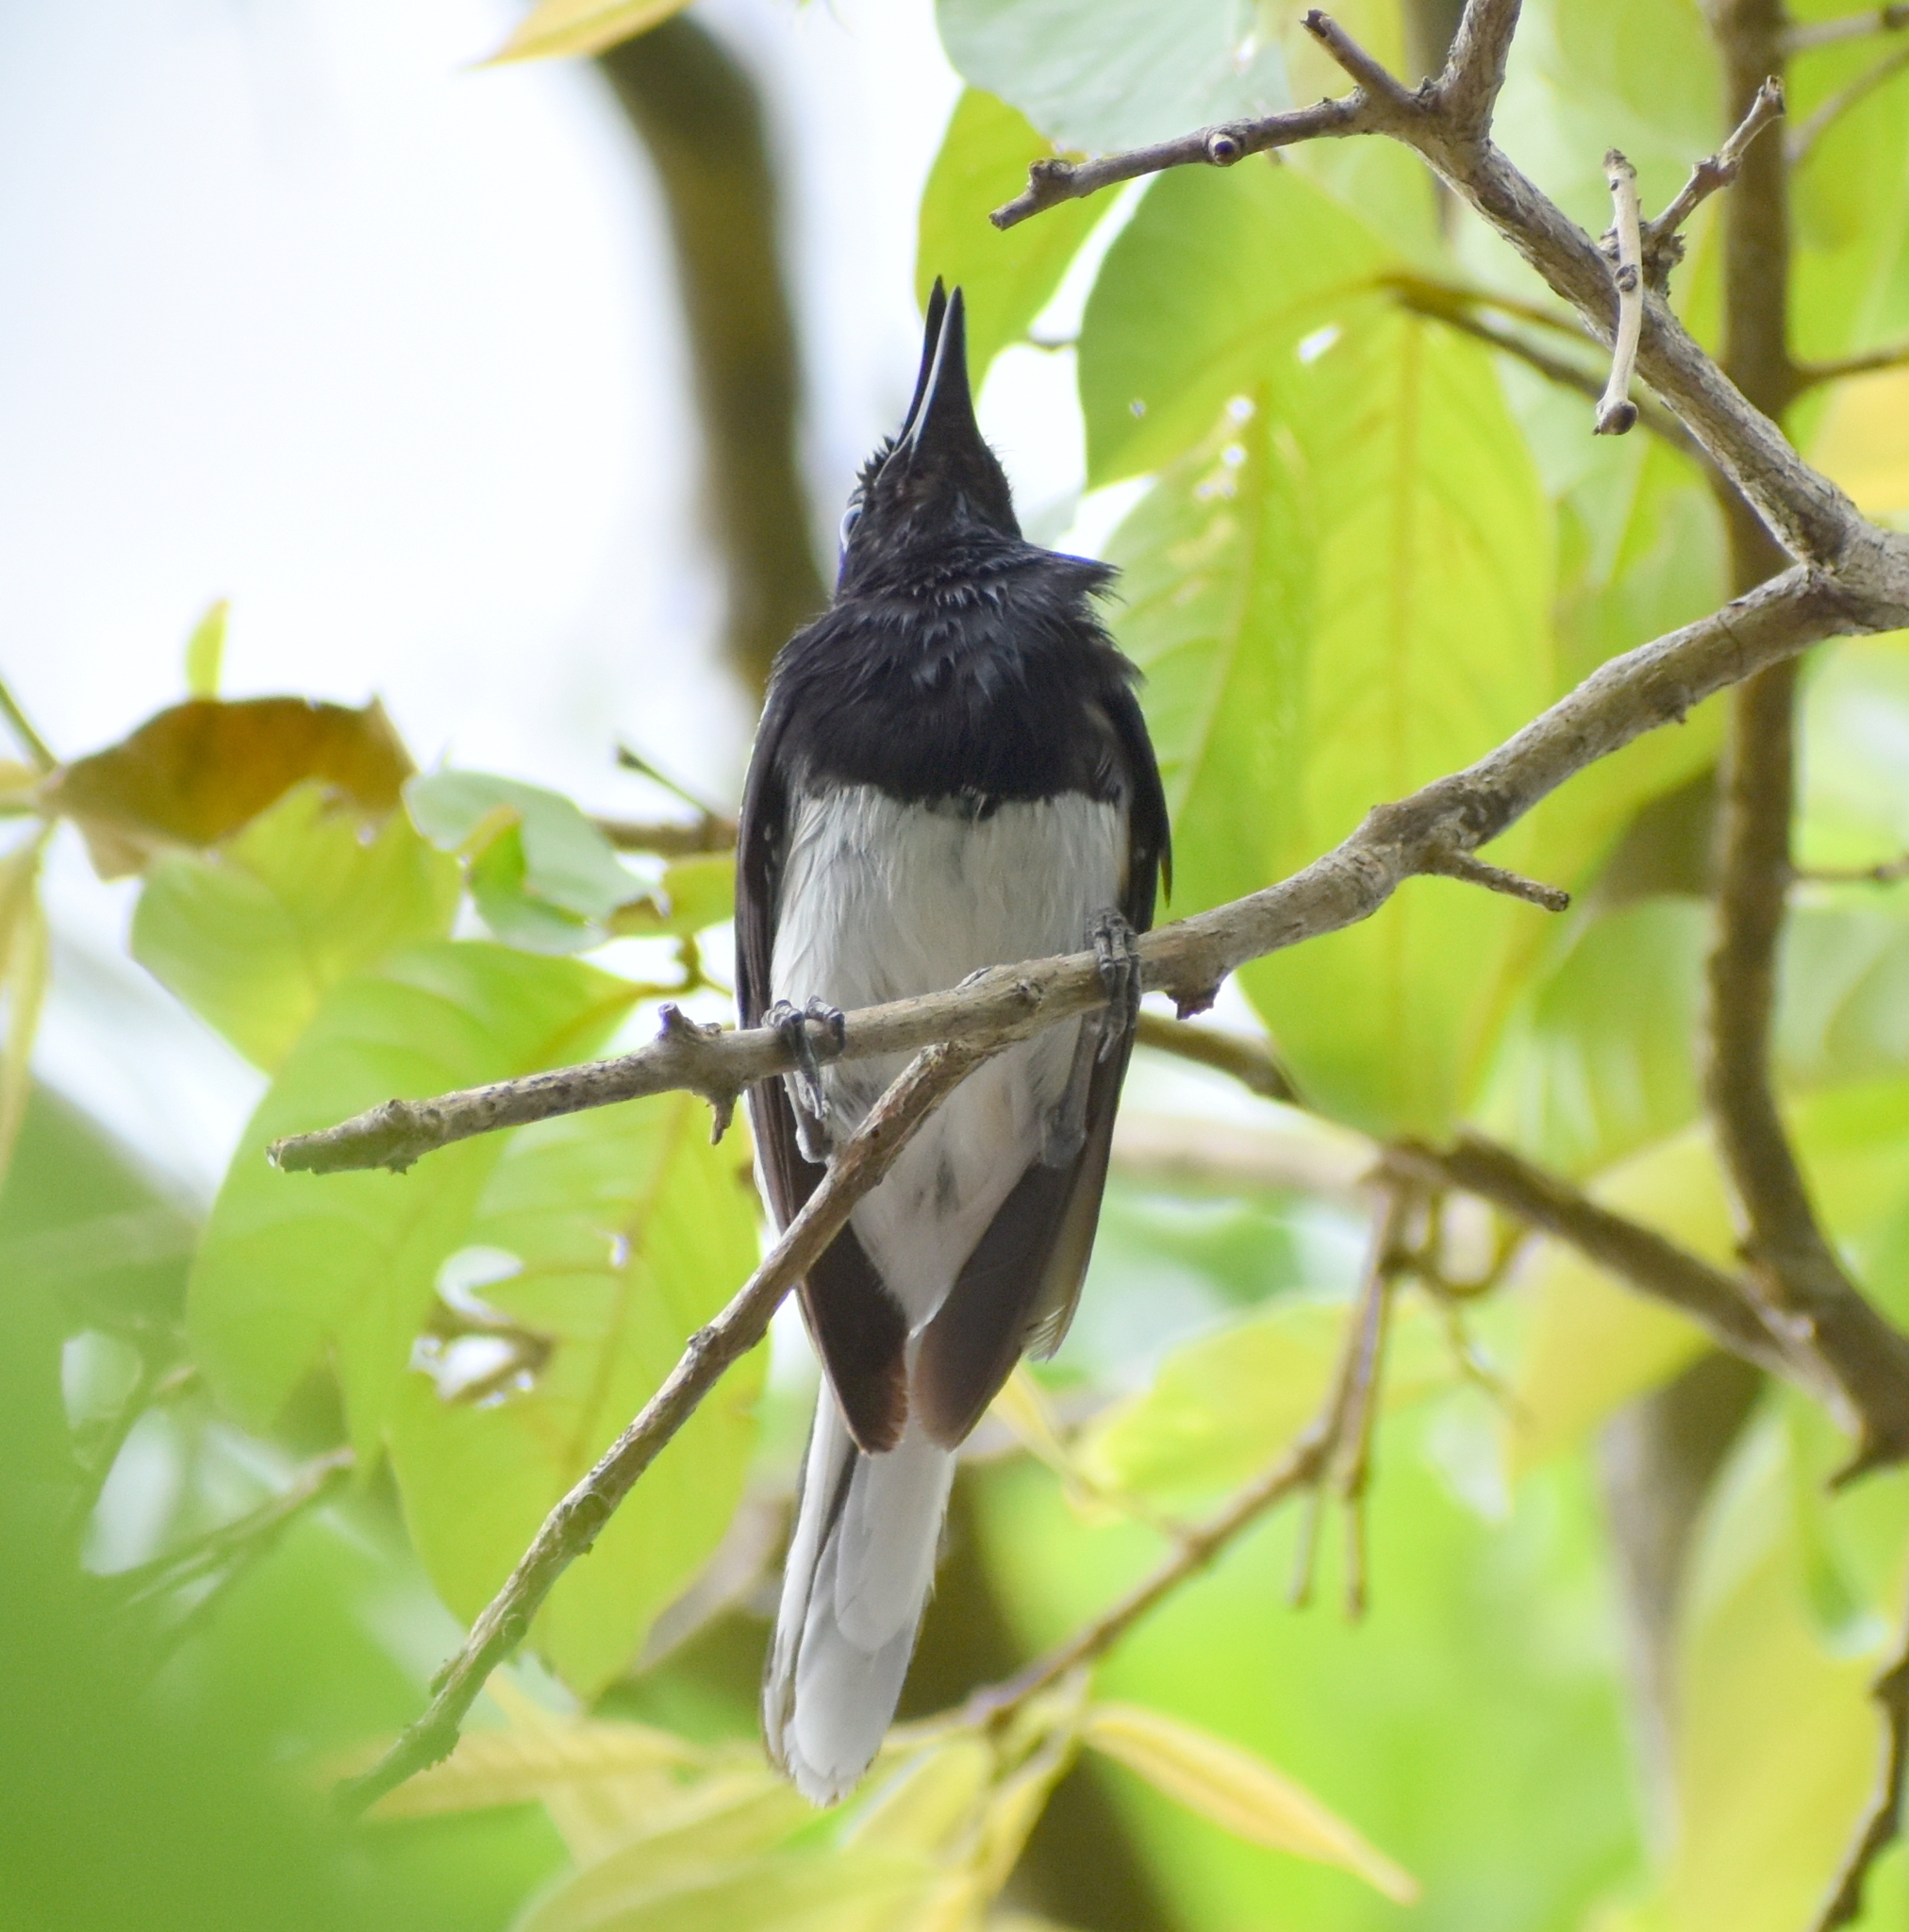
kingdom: Animalia
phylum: Chordata
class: Aves
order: Passeriformes
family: Muscicapidae
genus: Copsychus
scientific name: Copsychus saularis
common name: Oriental magpie-robin
